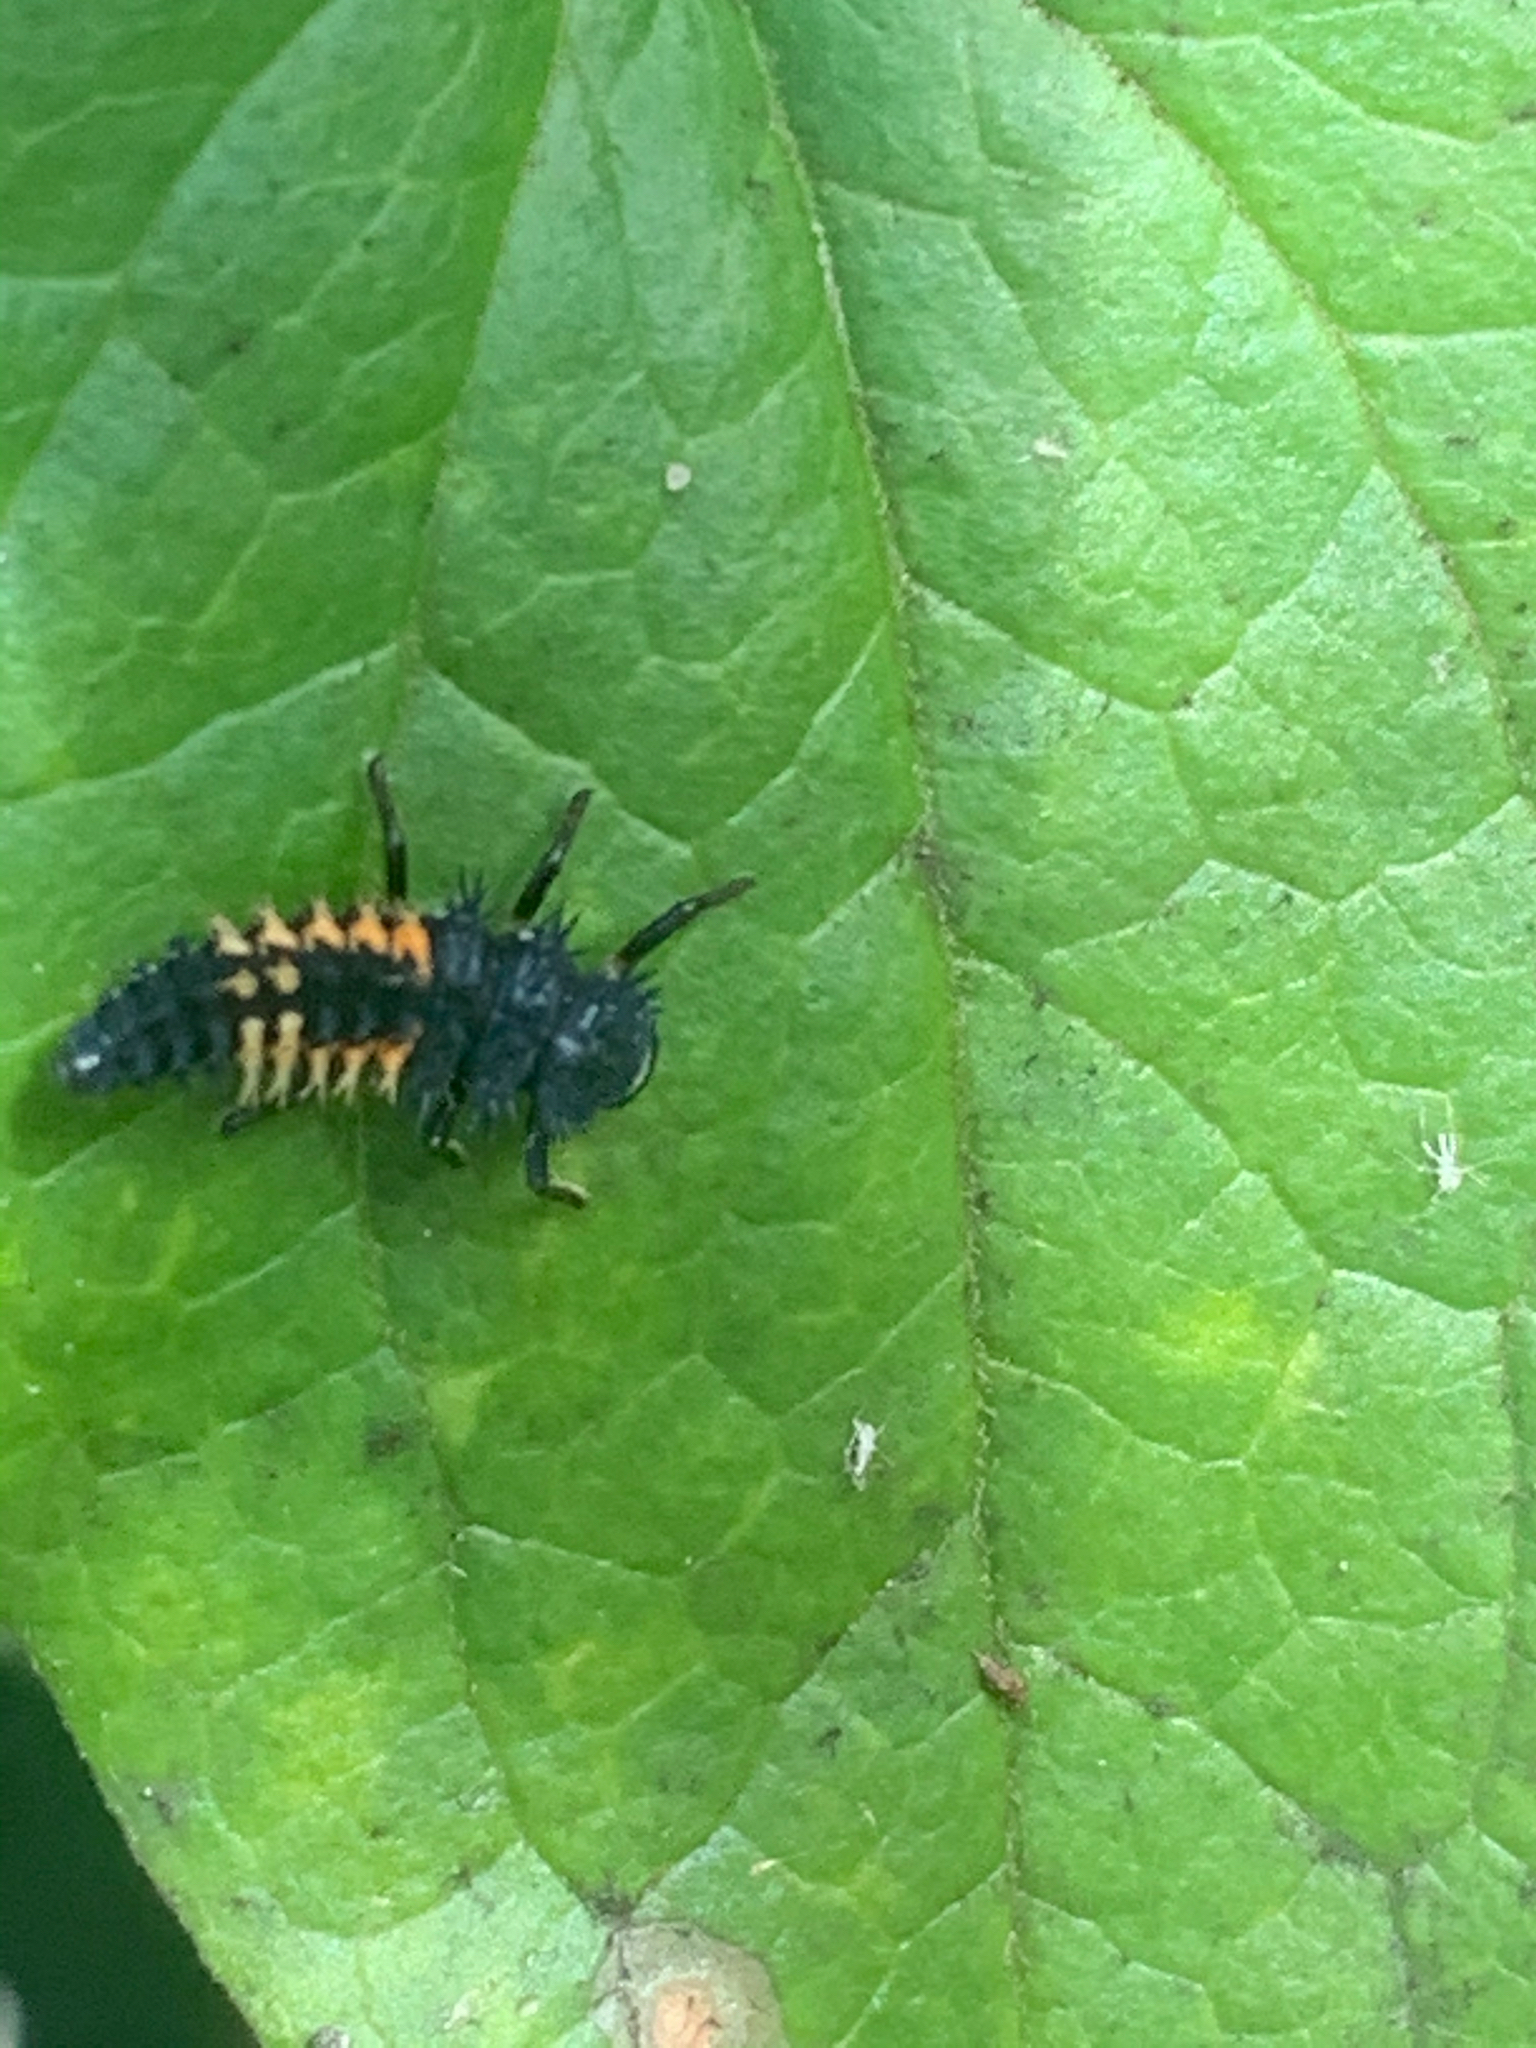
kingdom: Animalia
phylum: Arthropoda
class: Insecta
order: Coleoptera
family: Coccinellidae
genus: Harmonia
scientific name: Harmonia axyridis
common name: Harlequin ladybird
